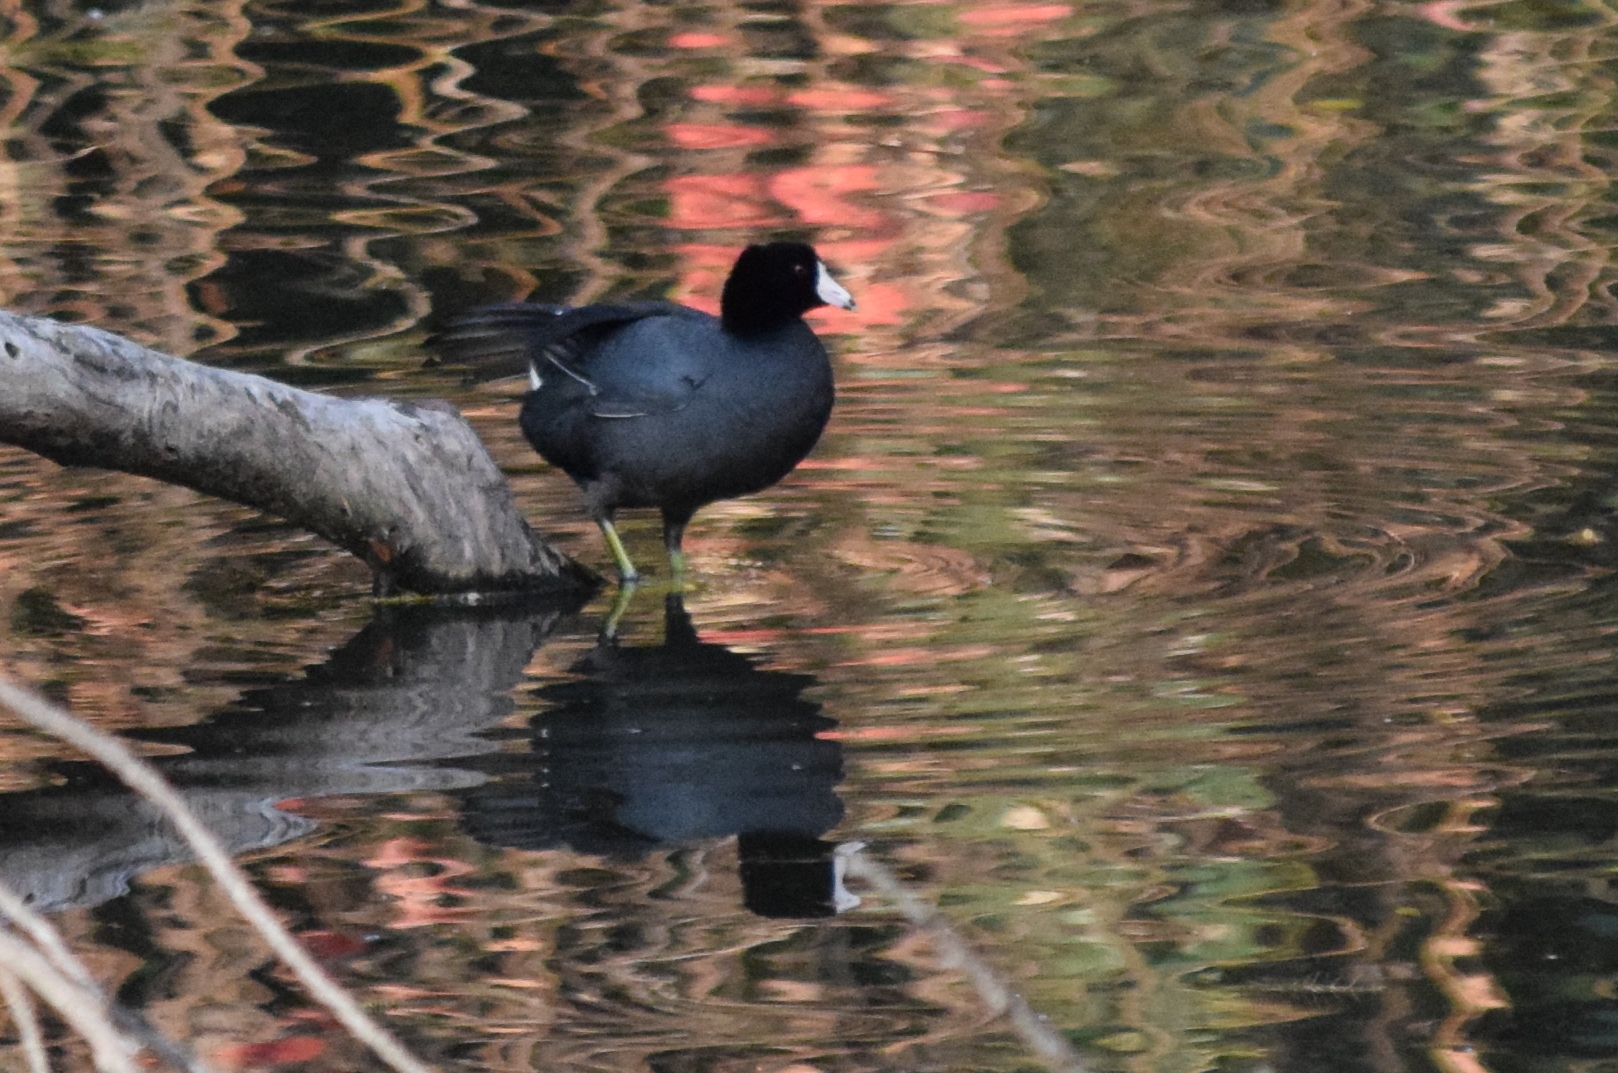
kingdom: Animalia
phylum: Chordata
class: Aves
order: Gruiformes
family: Rallidae
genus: Fulica
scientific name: Fulica americana
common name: American coot
